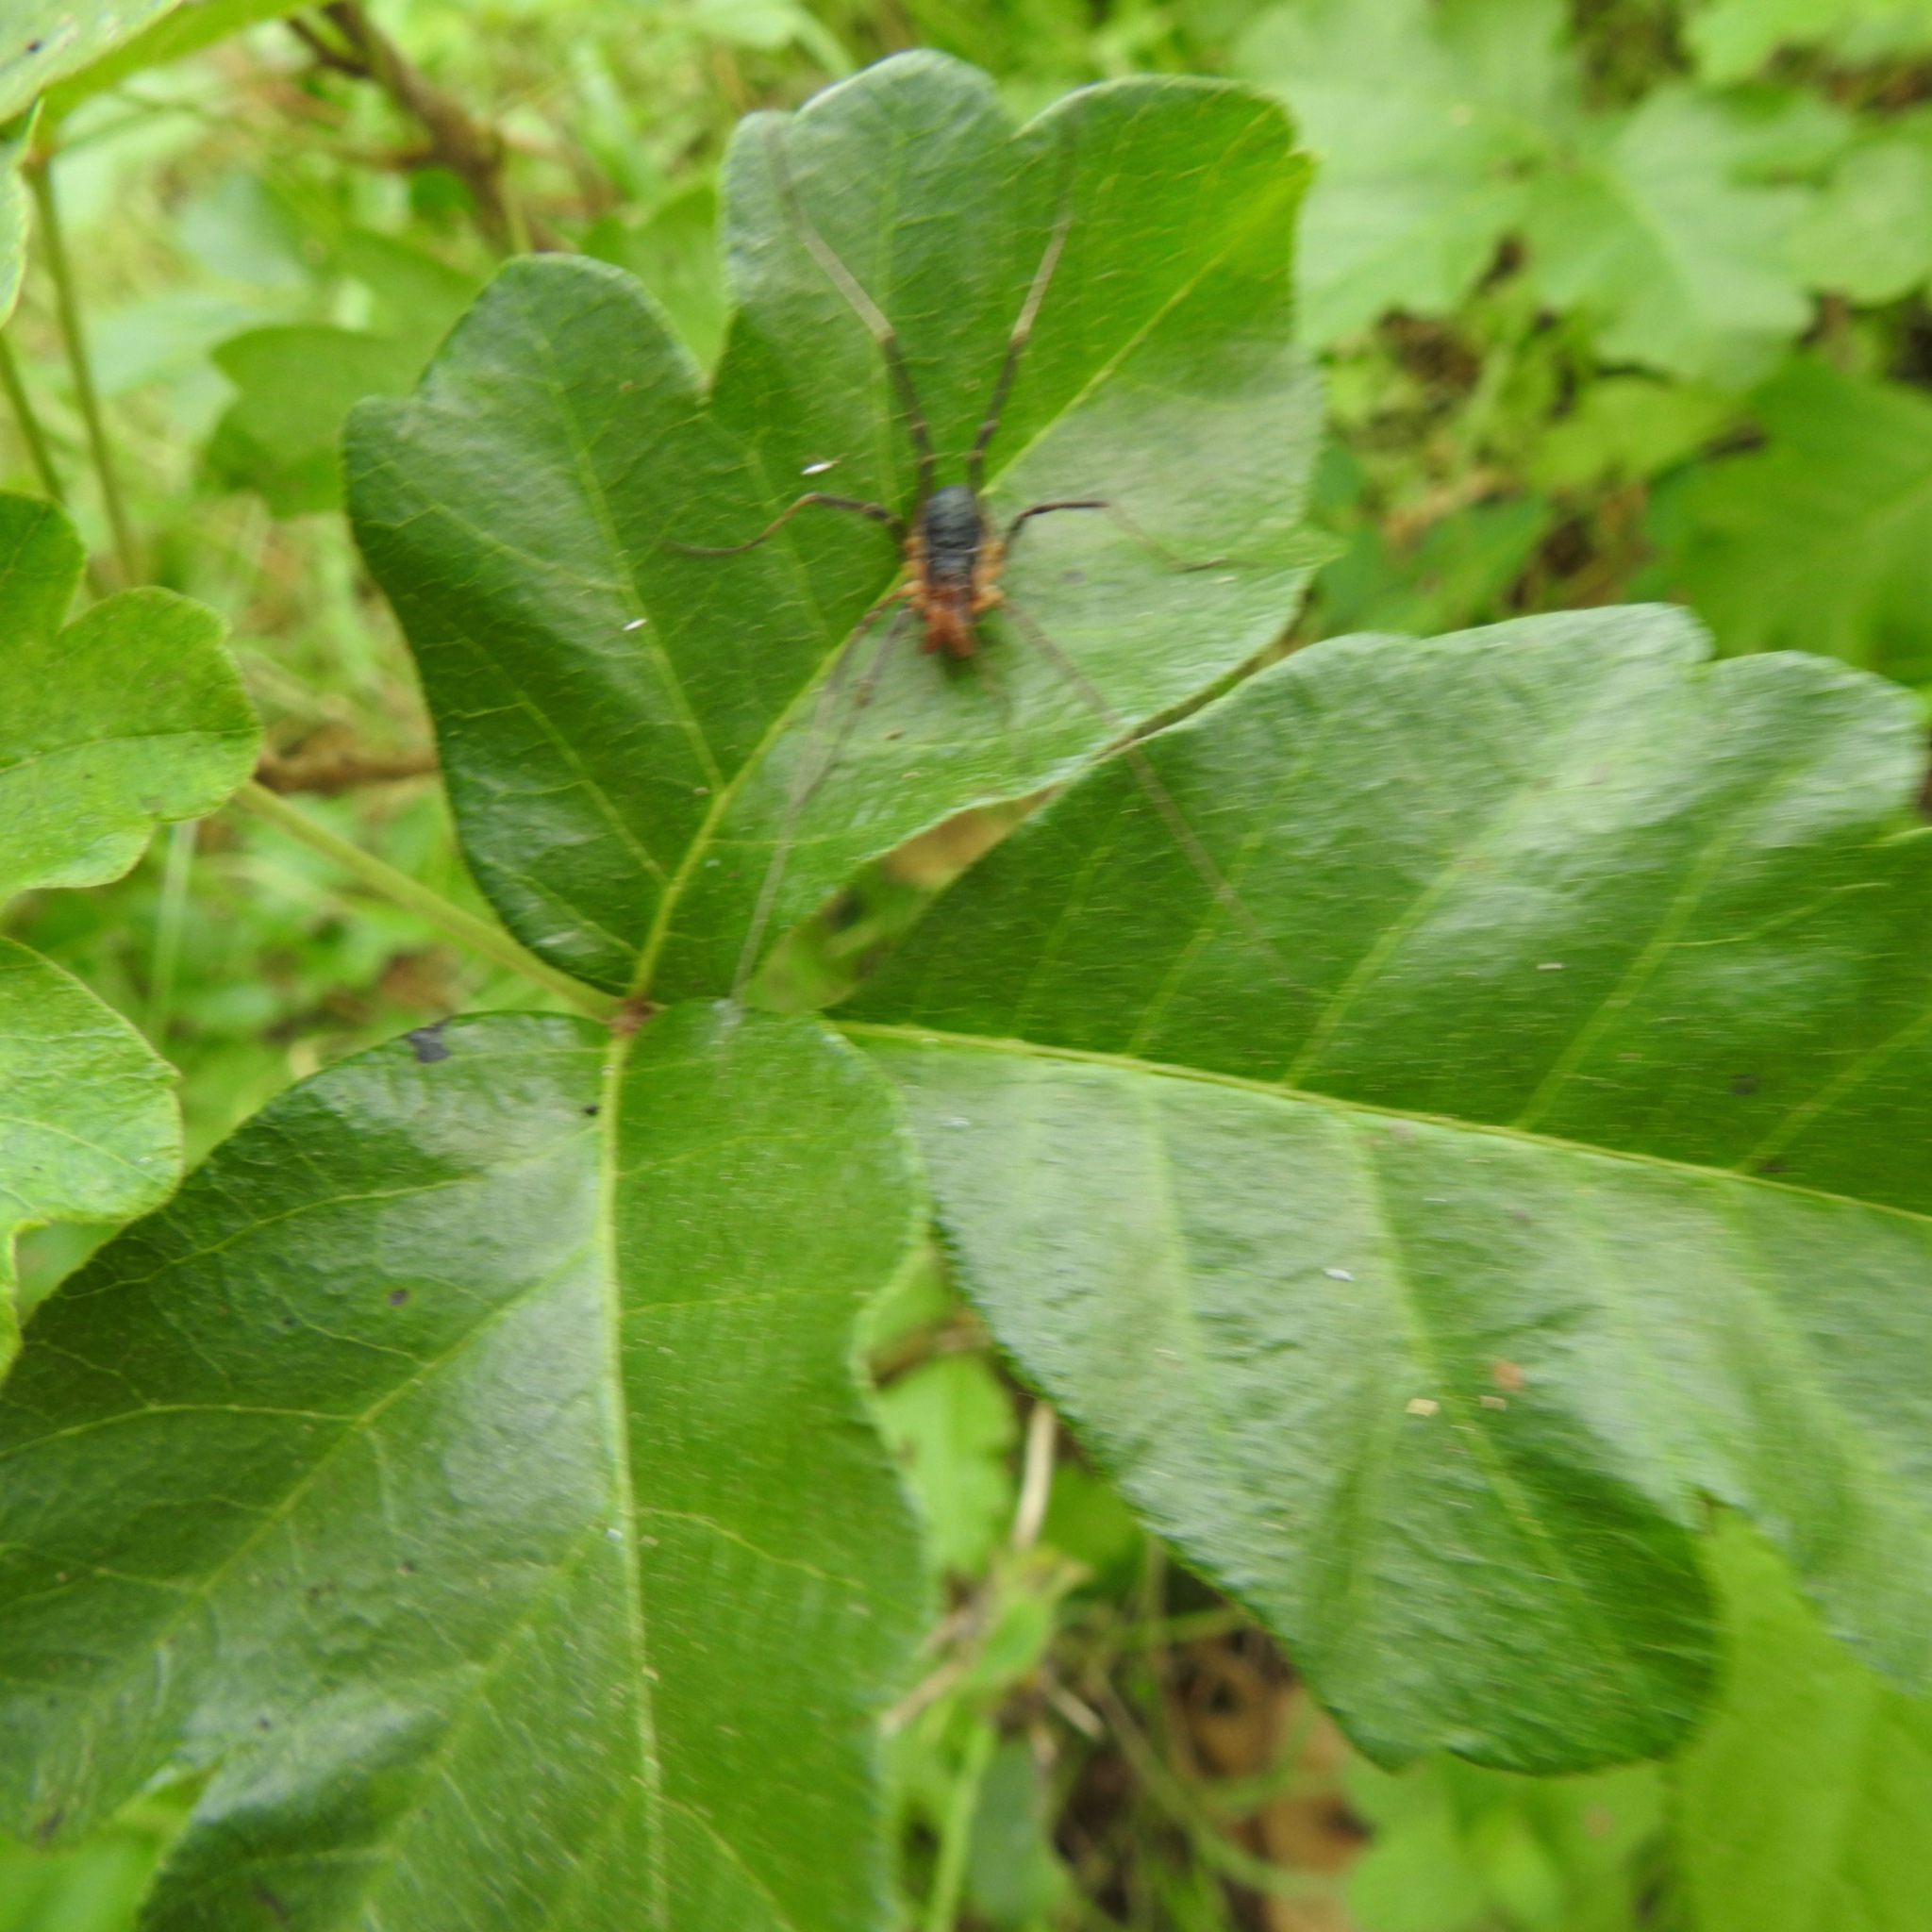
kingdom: Plantae
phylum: Tracheophyta
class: Magnoliopsida
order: Sapindales
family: Anacardiaceae
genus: Toxicodendron
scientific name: Toxicodendron diversilobum
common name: Pacific poison-oak
